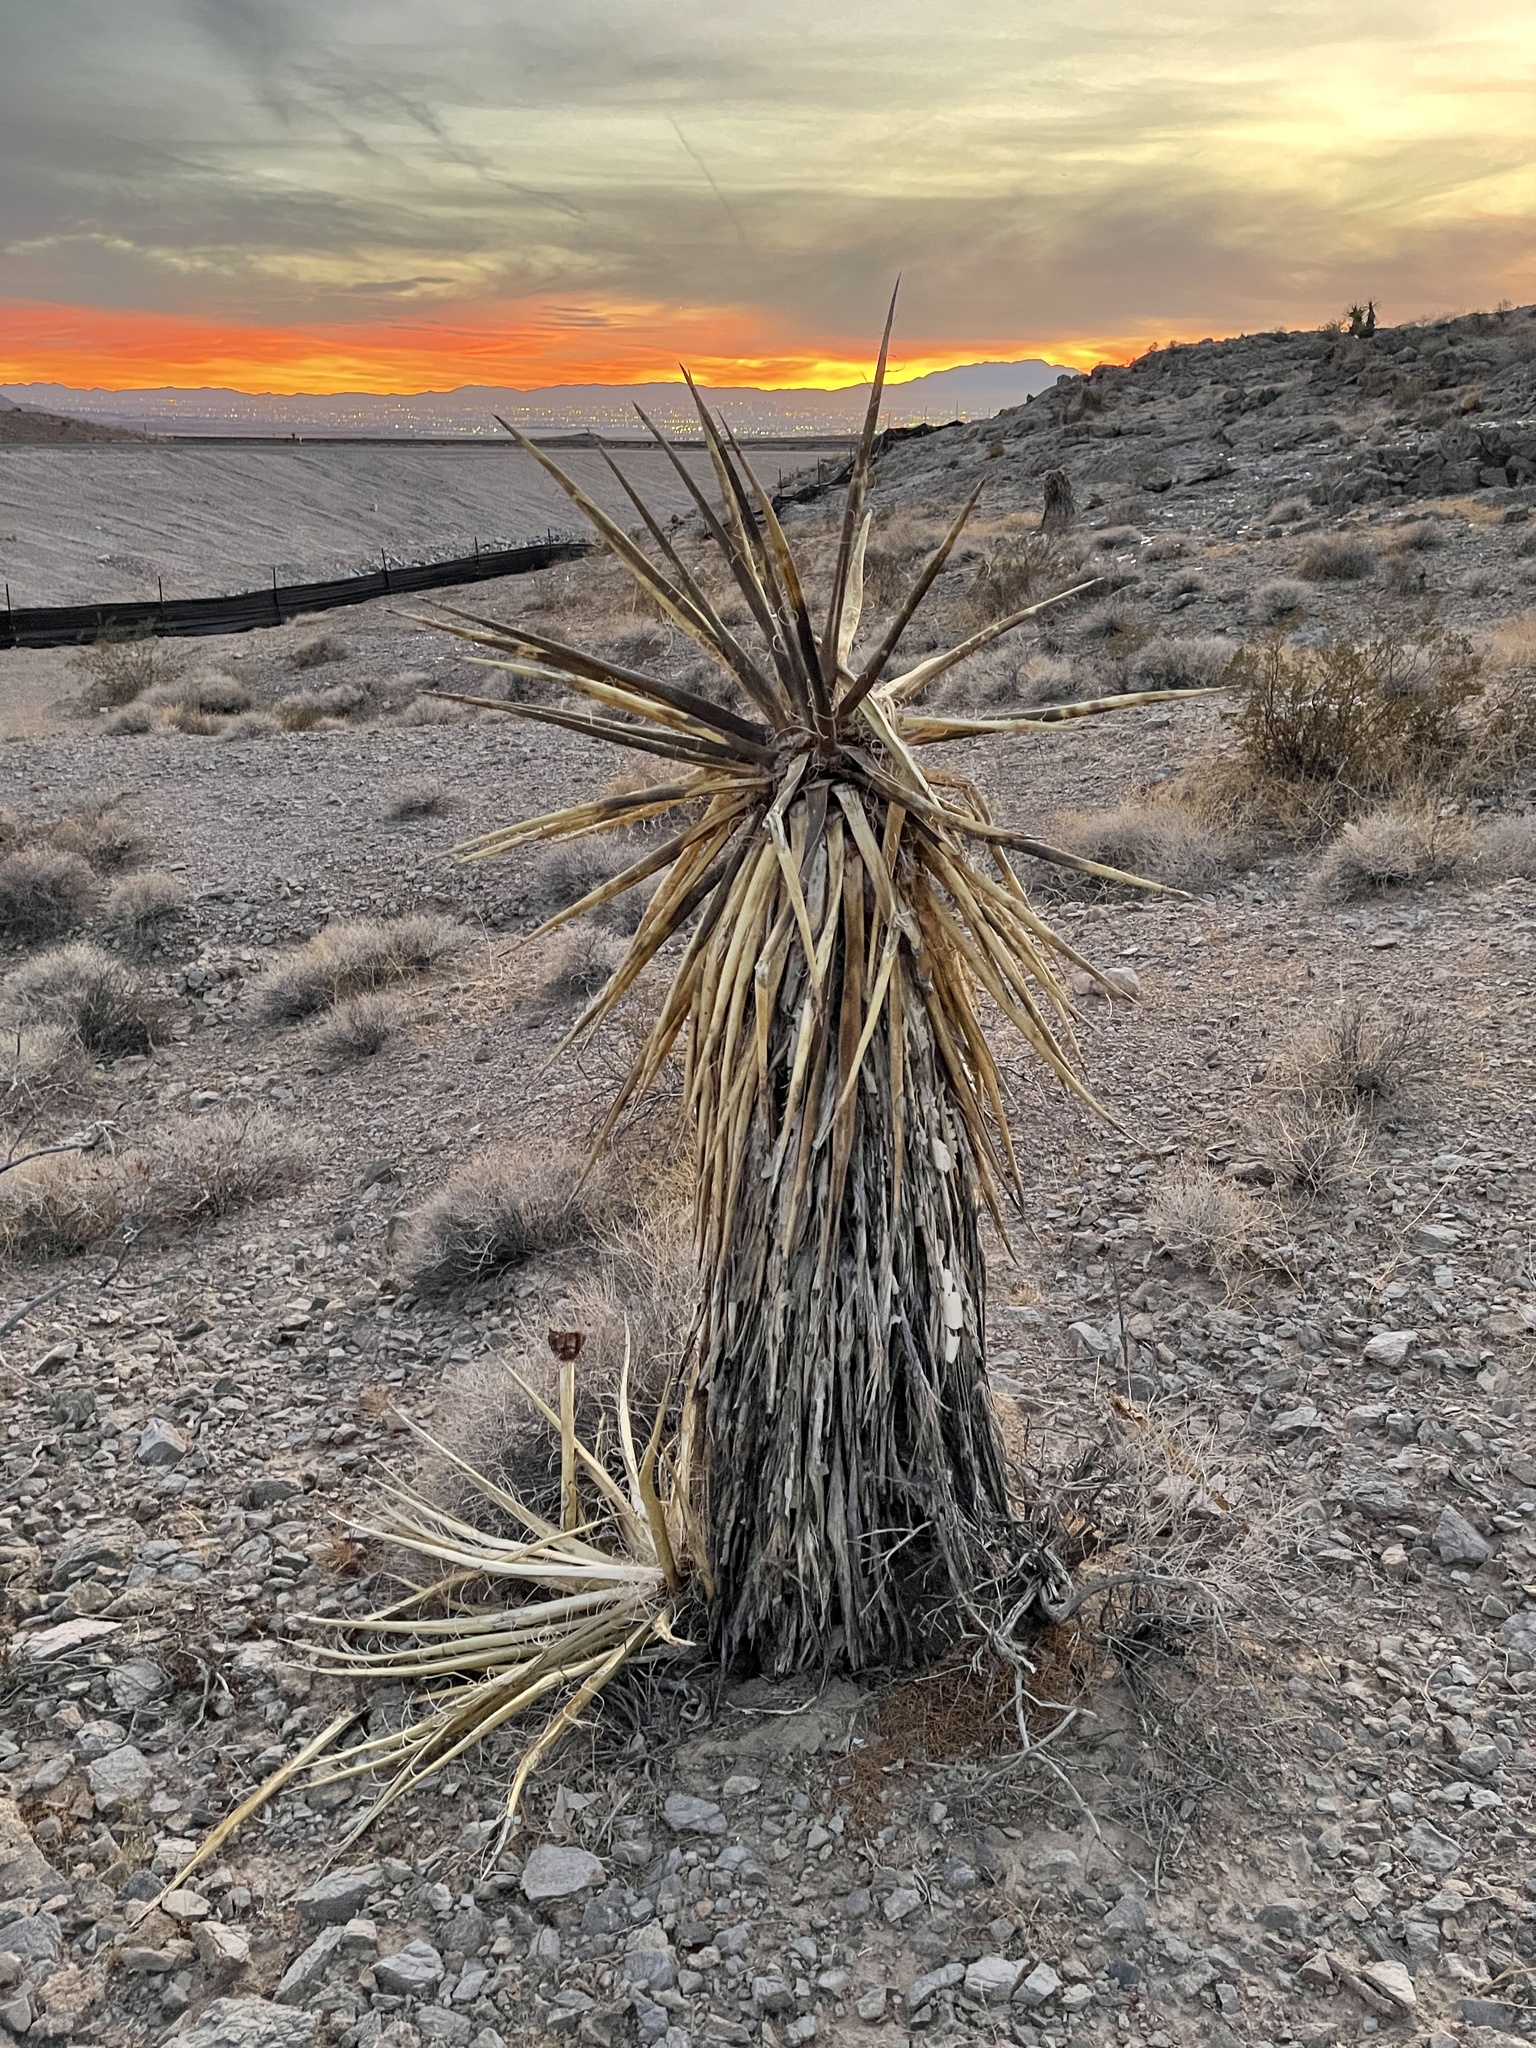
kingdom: Plantae
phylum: Tracheophyta
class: Liliopsida
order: Asparagales
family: Asparagaceae
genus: Yucca
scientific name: Yucca schidigera
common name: Mojave yucca
